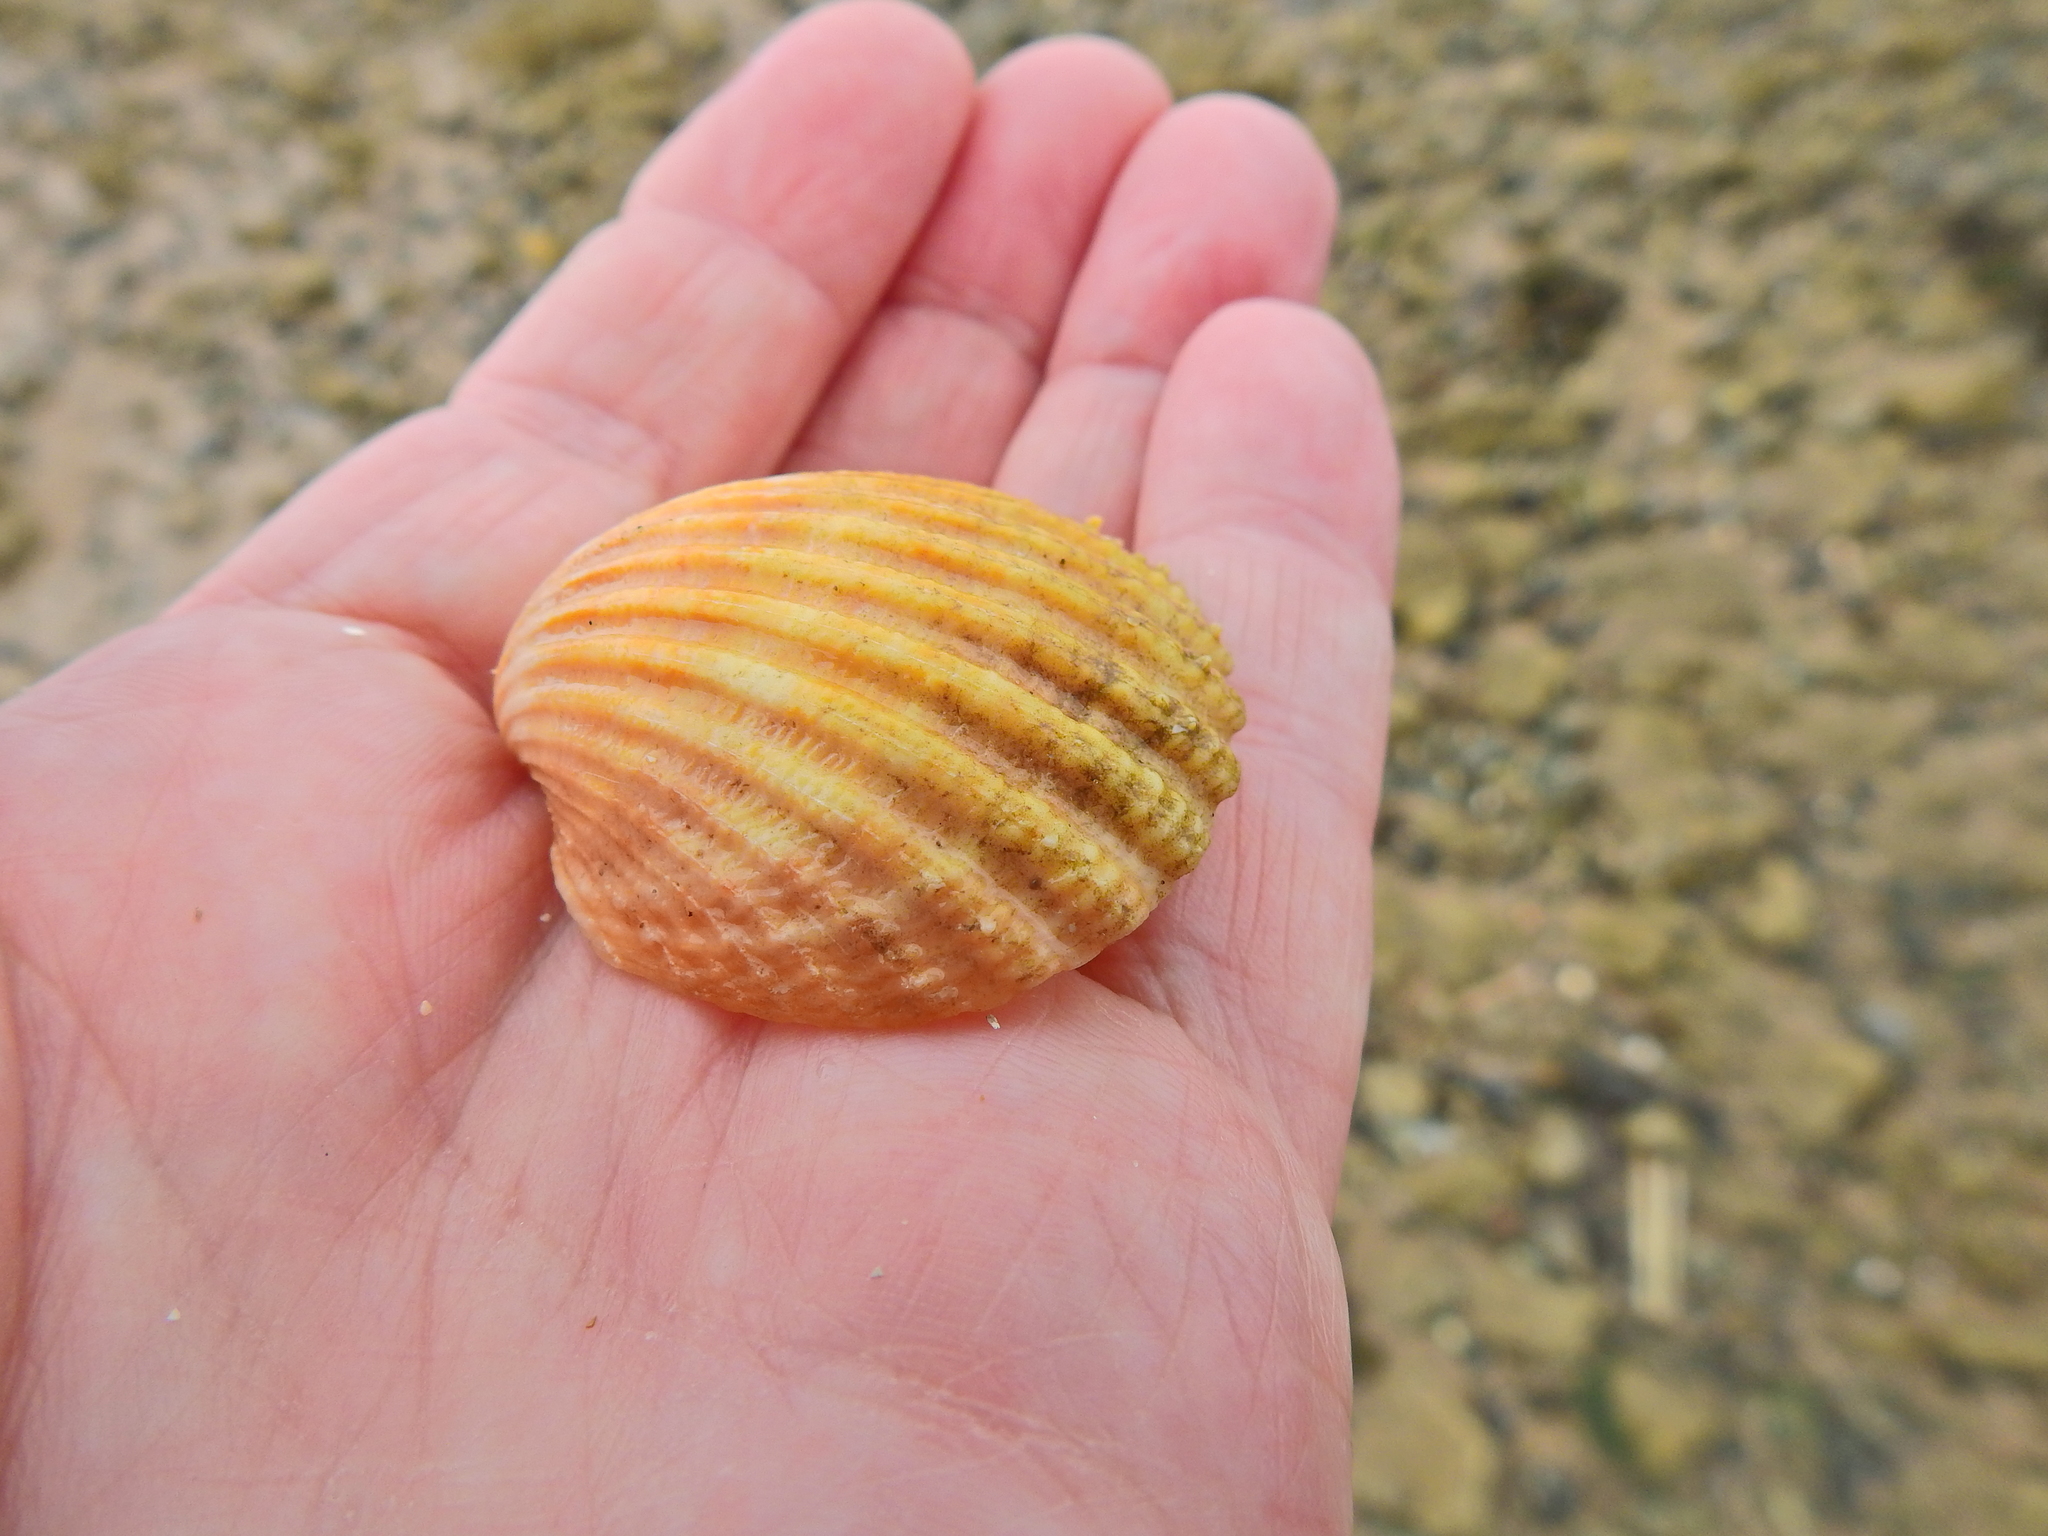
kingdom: Animalia
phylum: Mollusca
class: Bivalvia
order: Cardiida
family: Cardiidae
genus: Acanthocardia
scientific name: Acanthocardia echinata
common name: Prickly cockle
